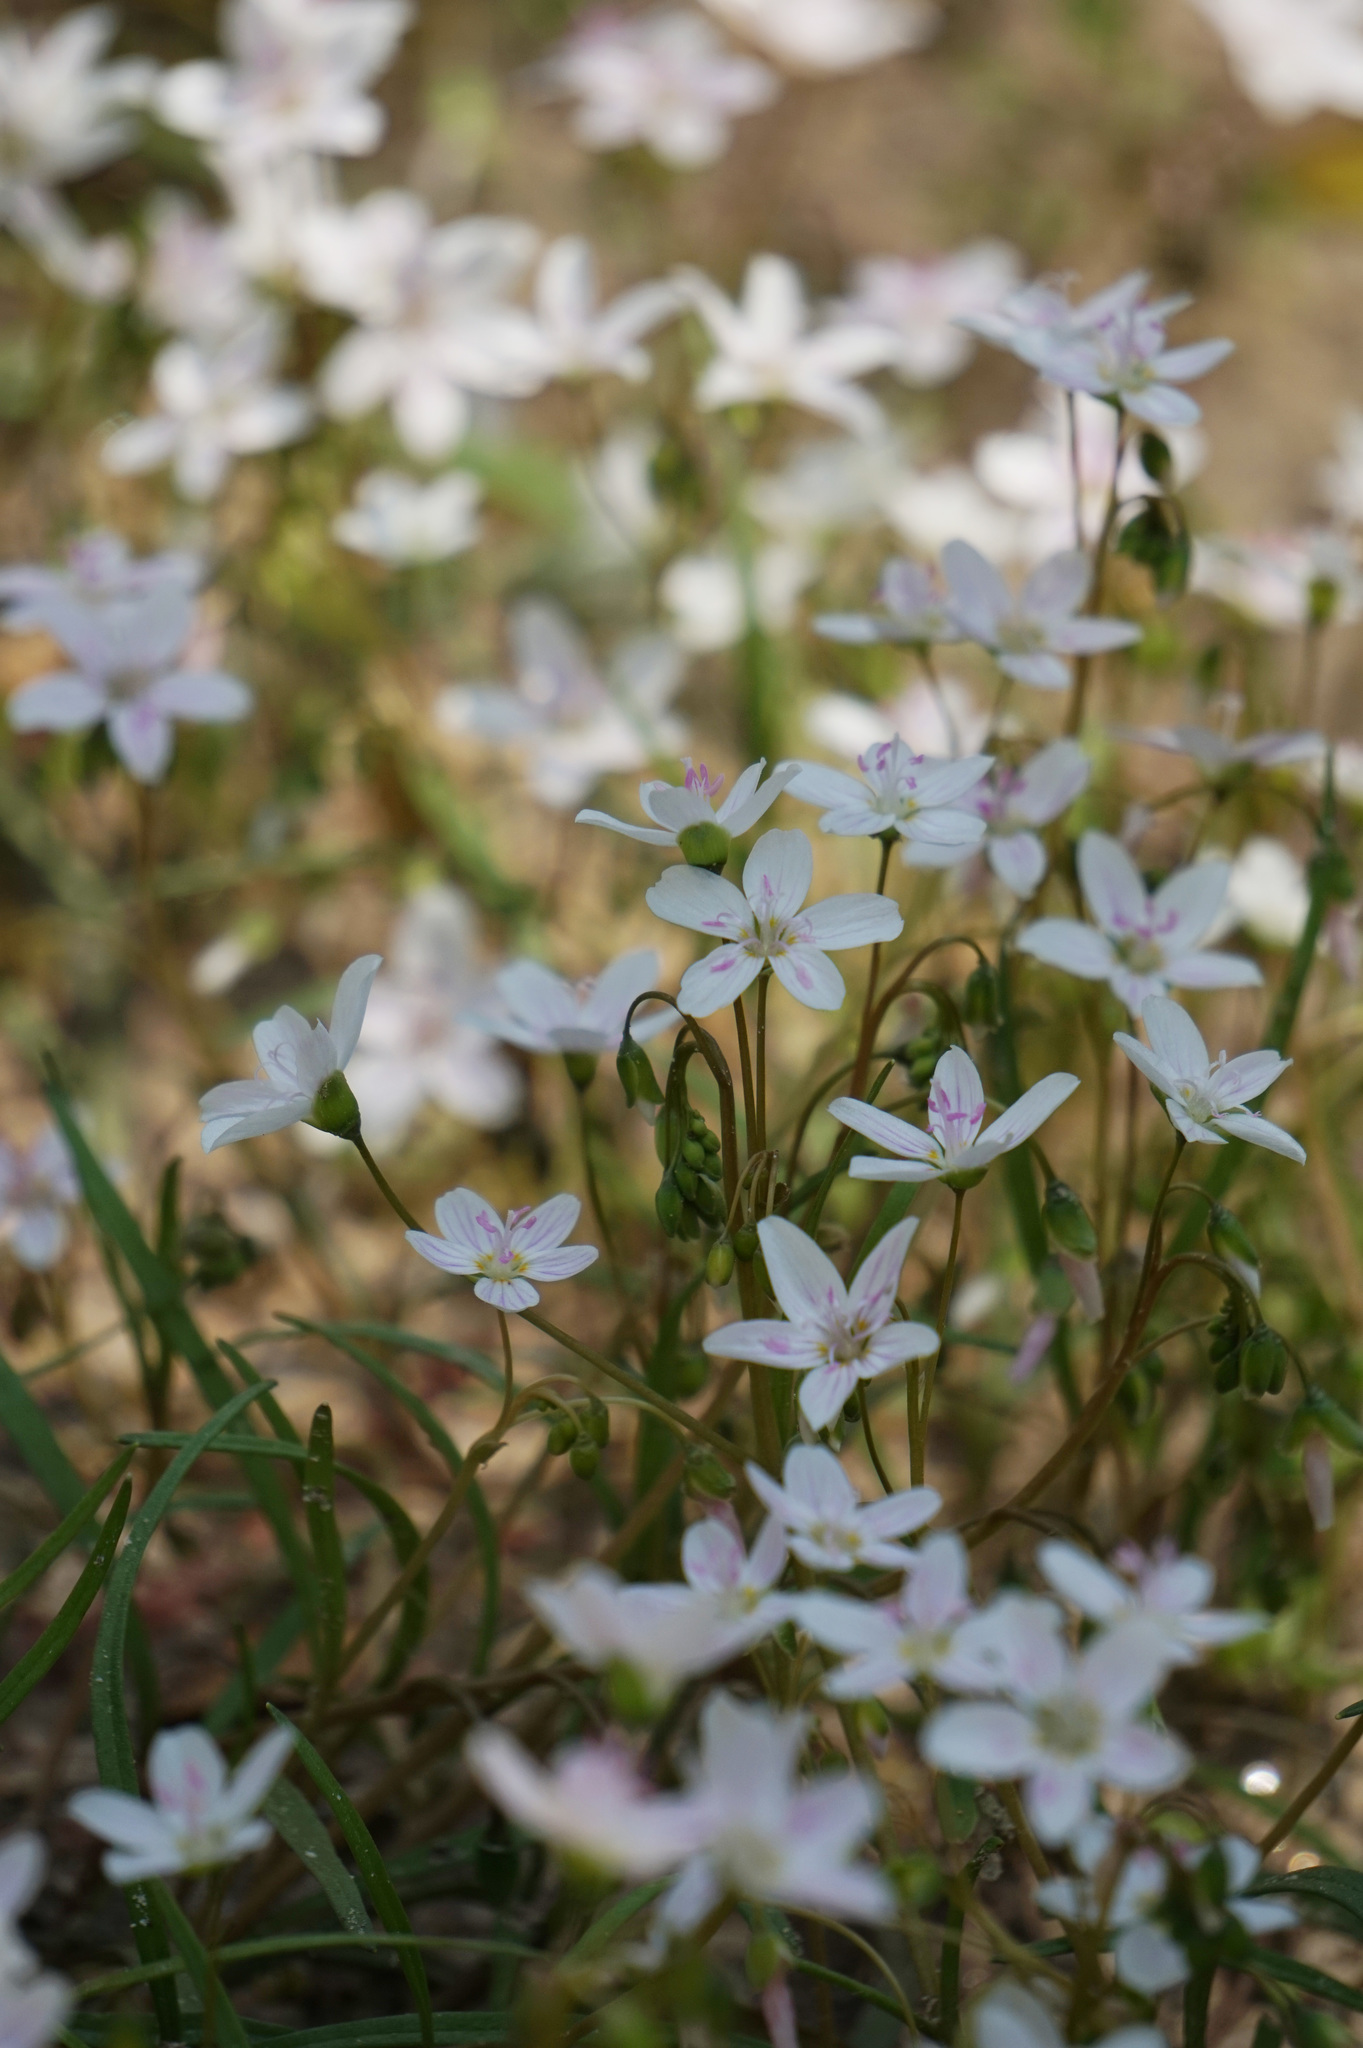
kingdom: Plantae
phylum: Tracheophyta
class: Magnoliopsida
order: Caryophyllales
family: Montiaceae
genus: Claytonia
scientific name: Claytonia virginica
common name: Virginia springbeauty
